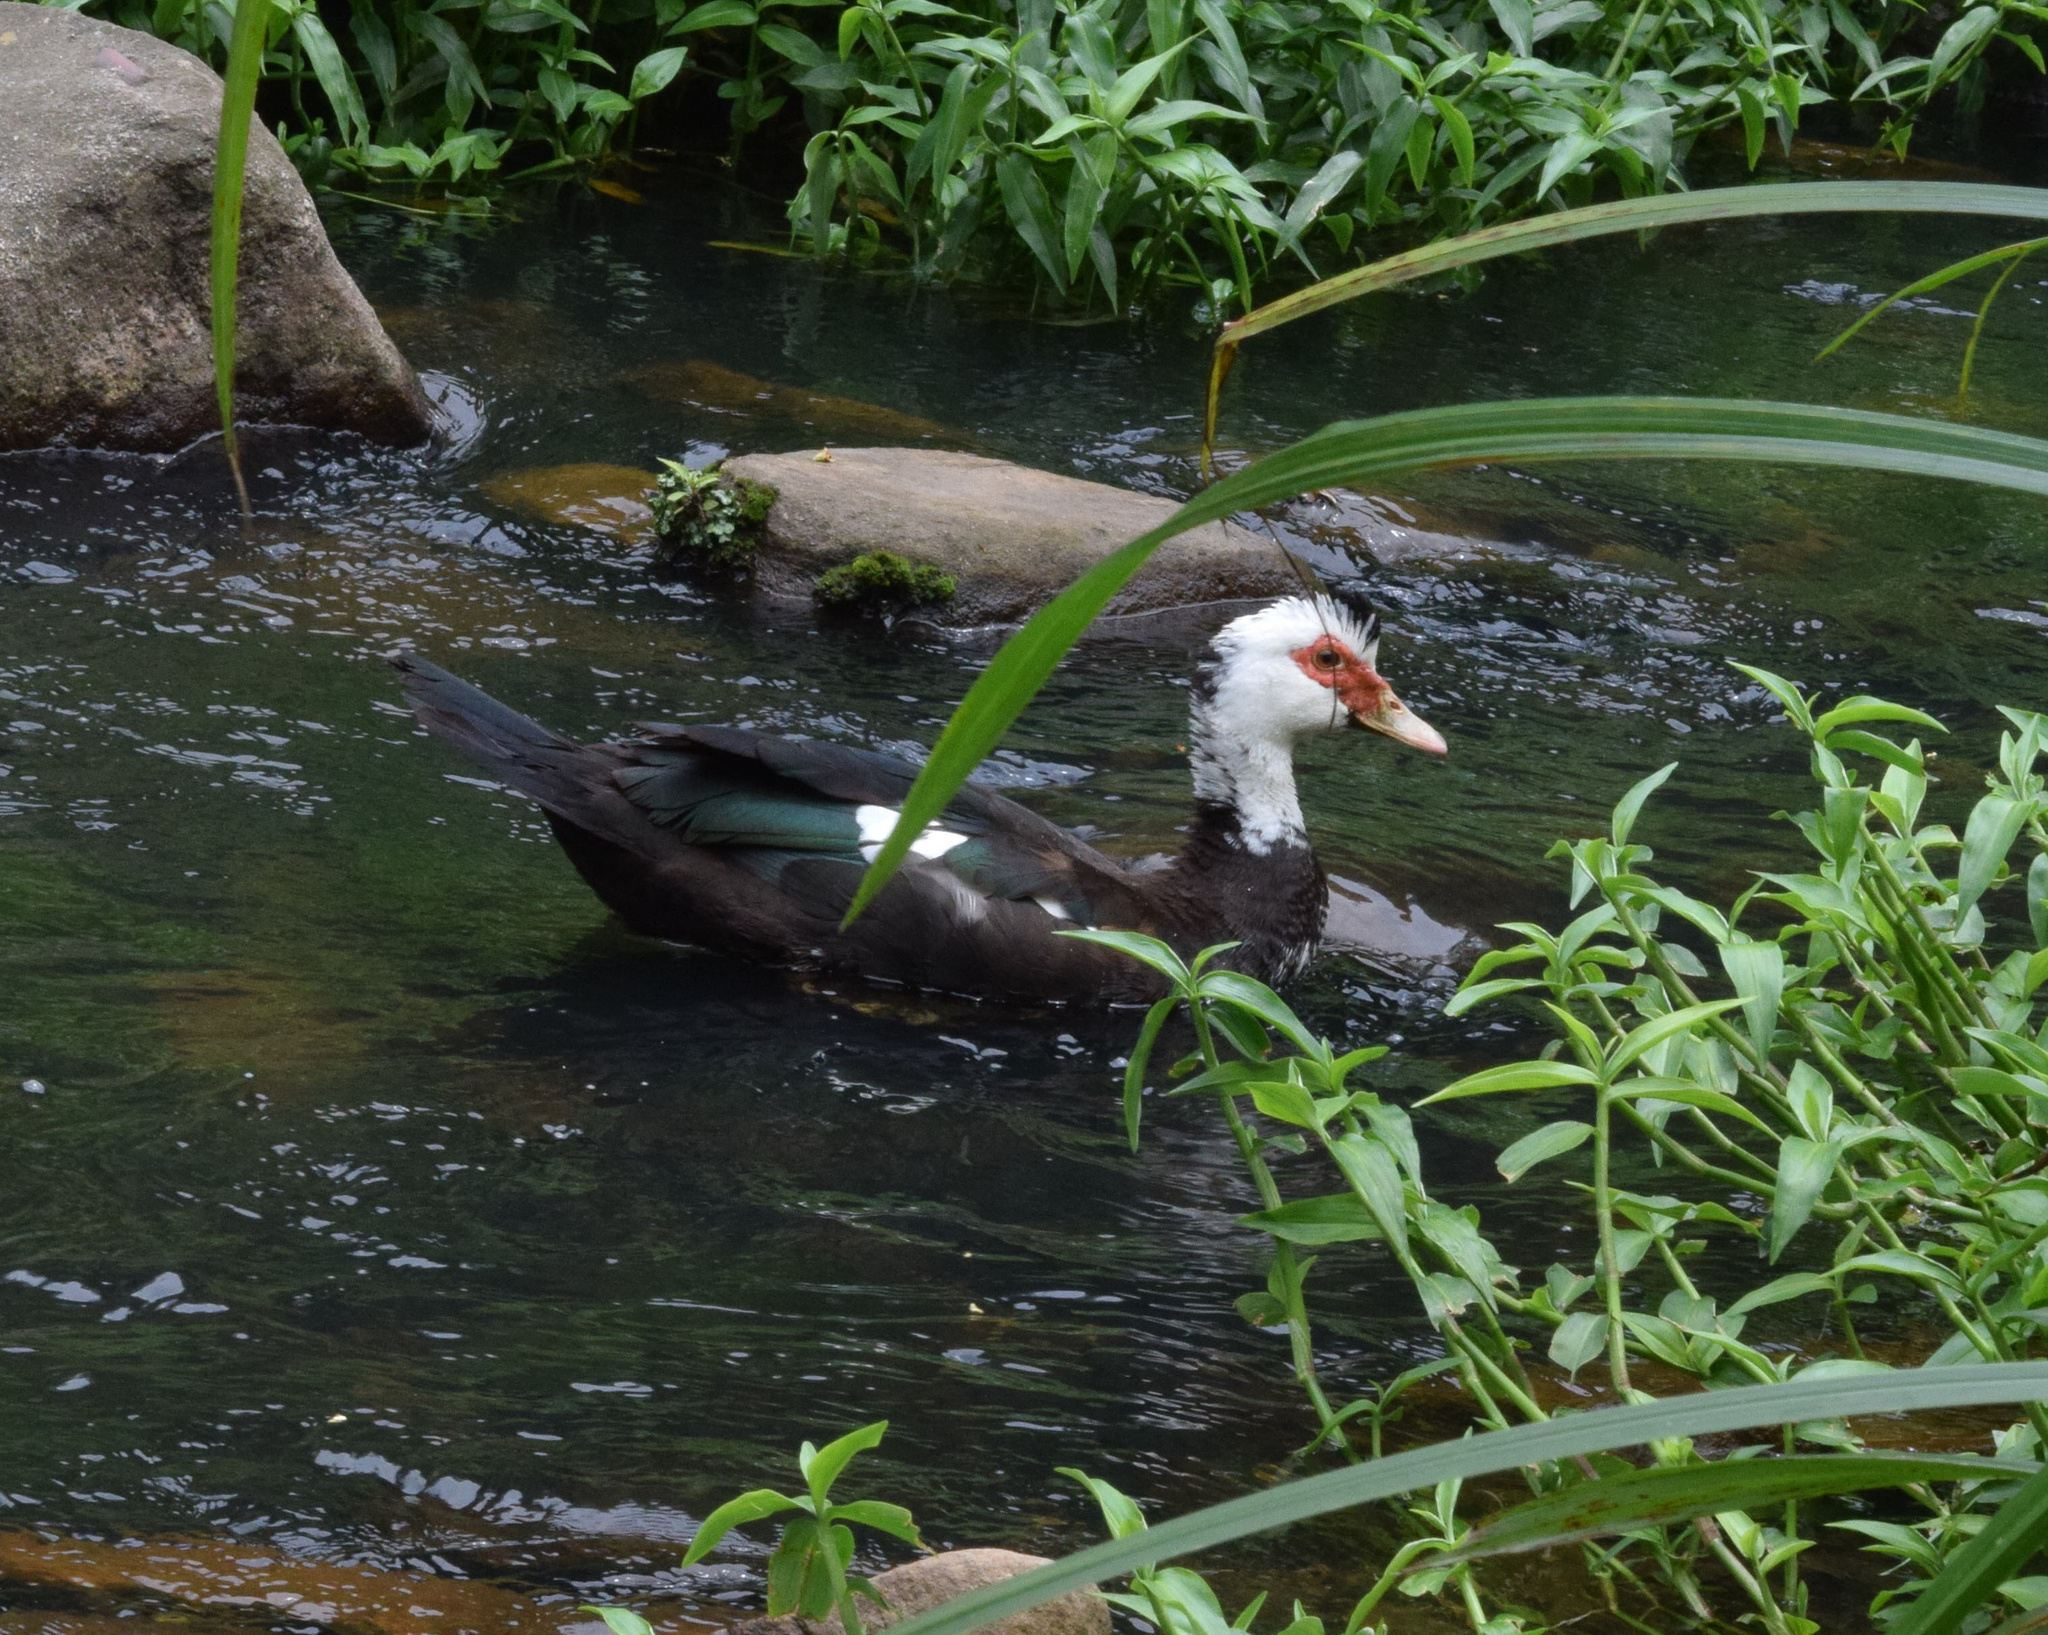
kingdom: Animalia
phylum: Chordata
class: Aves
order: Anseriformes
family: Anatidae
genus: Cairina
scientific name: Cairina moschata
